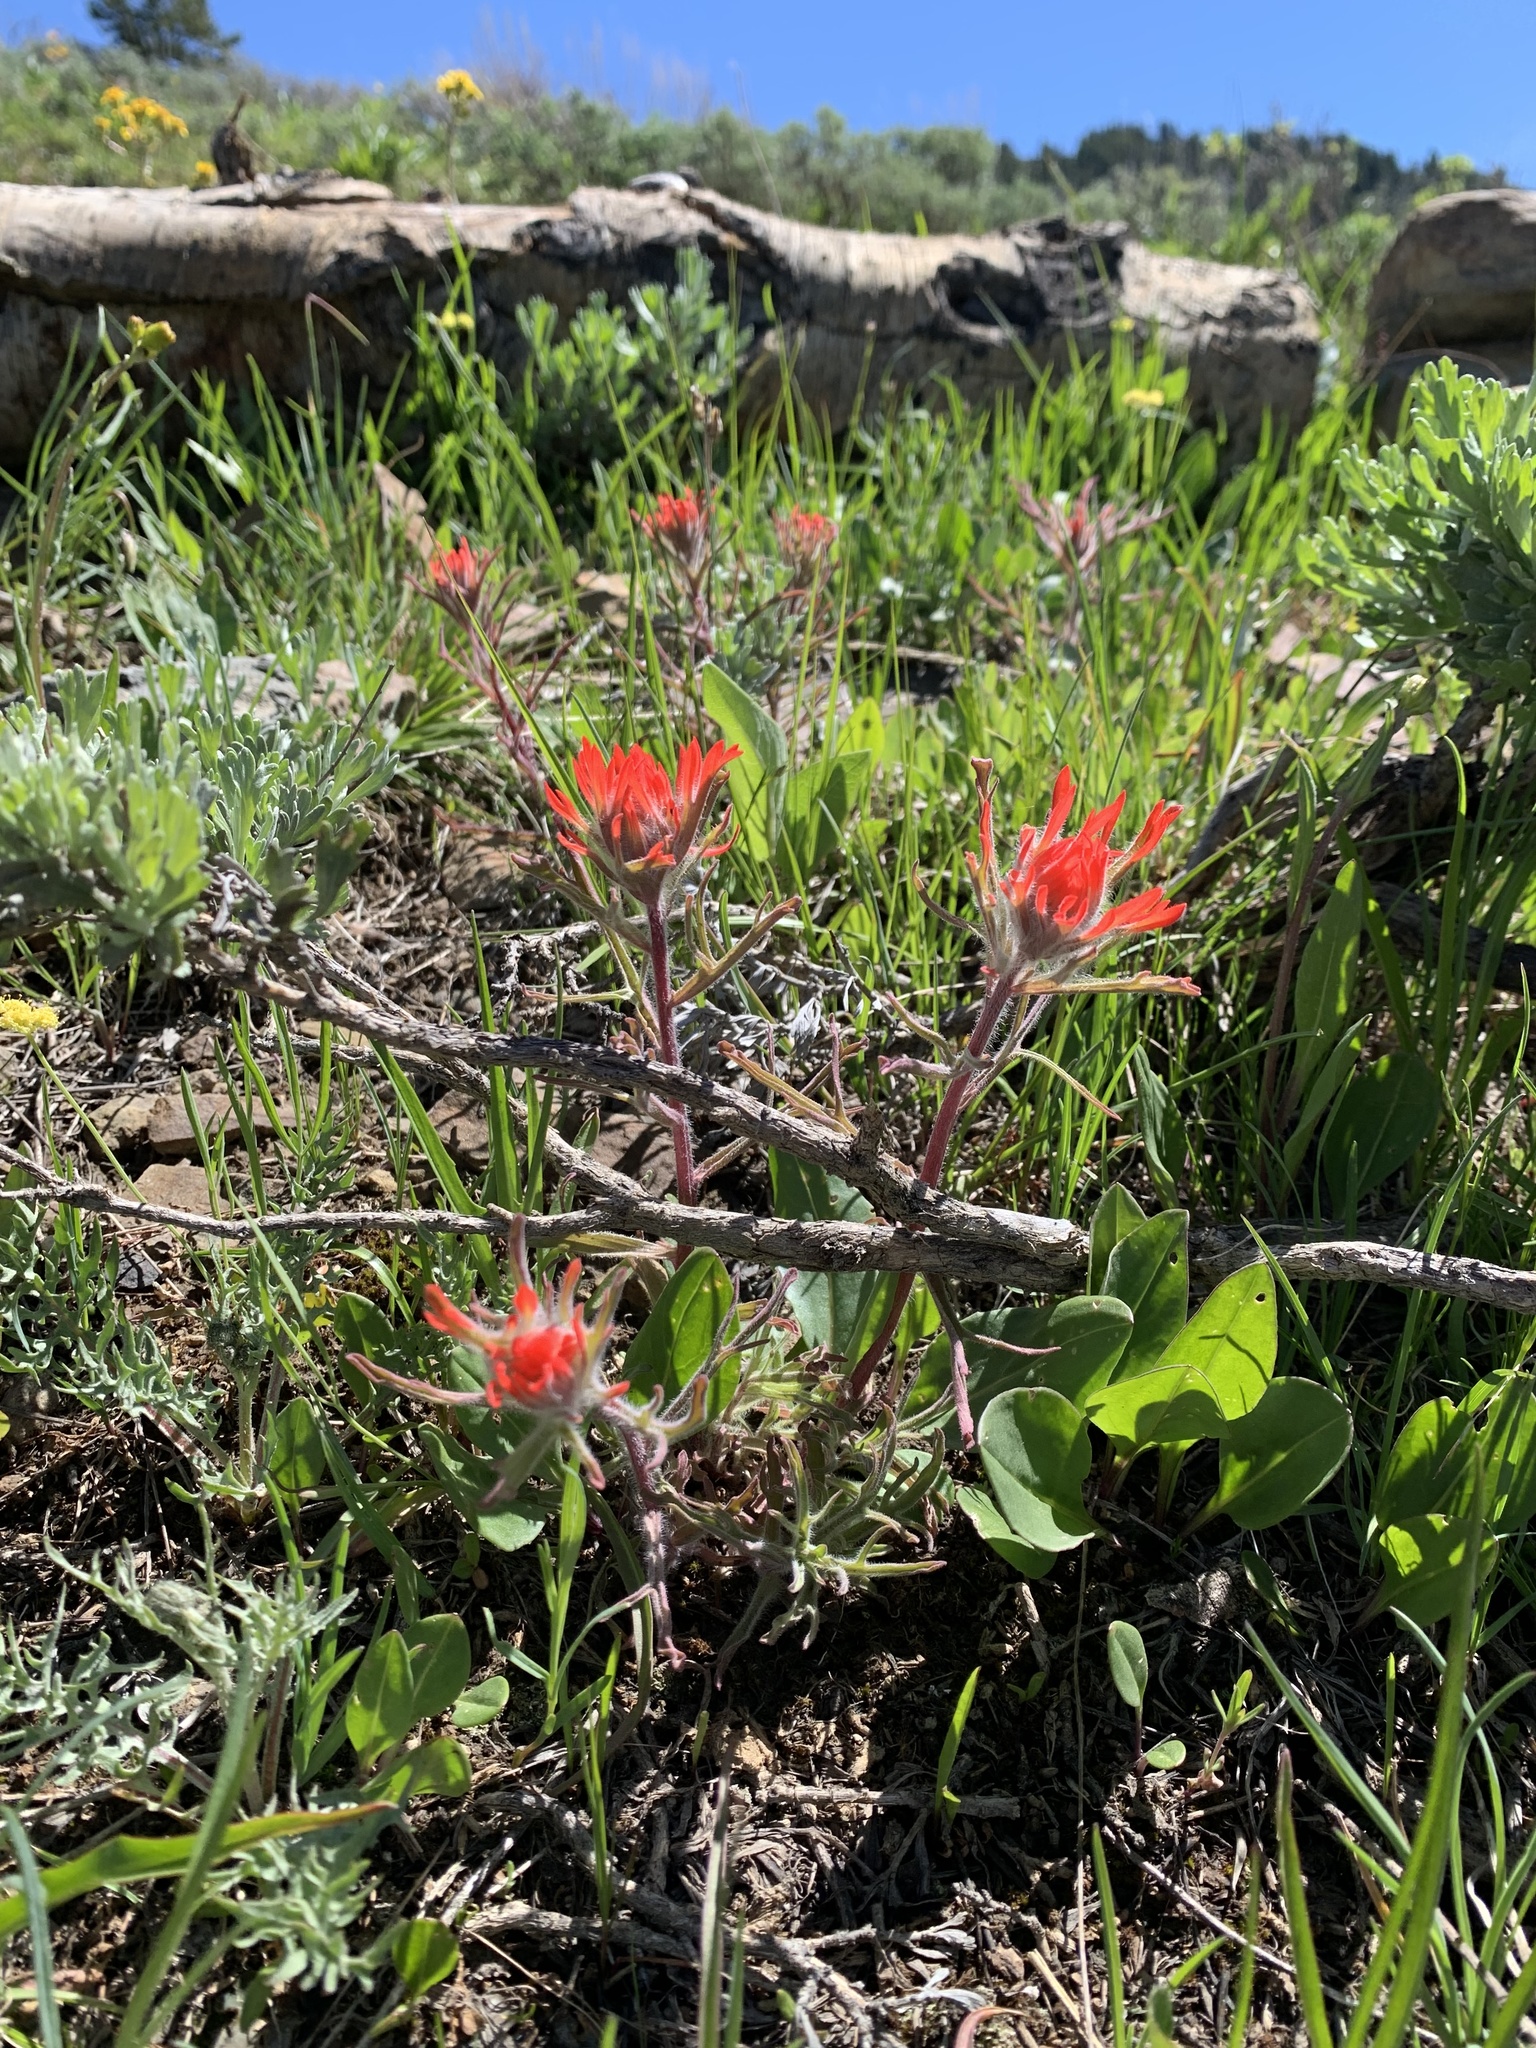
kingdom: Plantae
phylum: Tracheophyta
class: Magnoliopsida
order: Lamiales
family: Orobanchaceae
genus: Castilleja
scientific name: Castilleja chromosa
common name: Desert paintbrush
